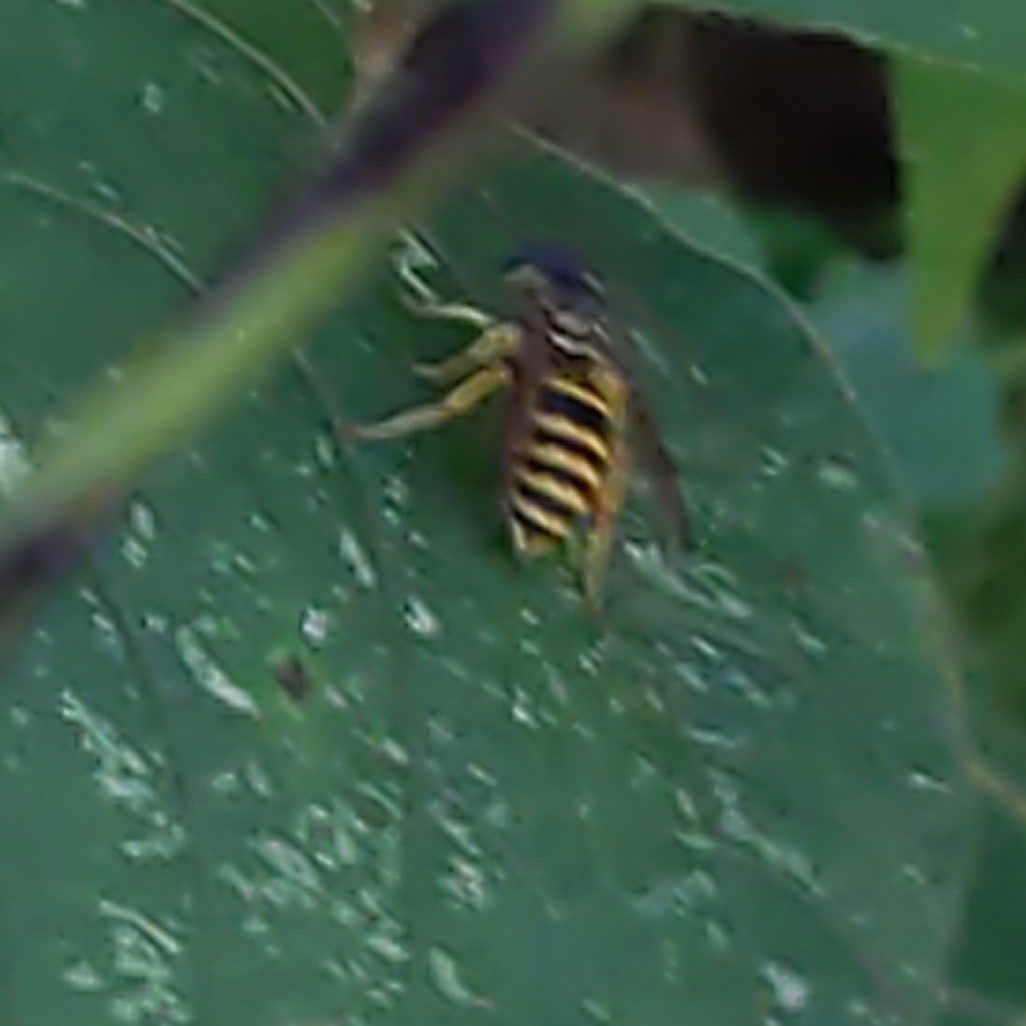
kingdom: Animalia
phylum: Arthropoda
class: Insecta
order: Hymenoptera
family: Vespidae
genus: Vespula
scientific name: Vespula maculifrons
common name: Eastern yellowjacket
